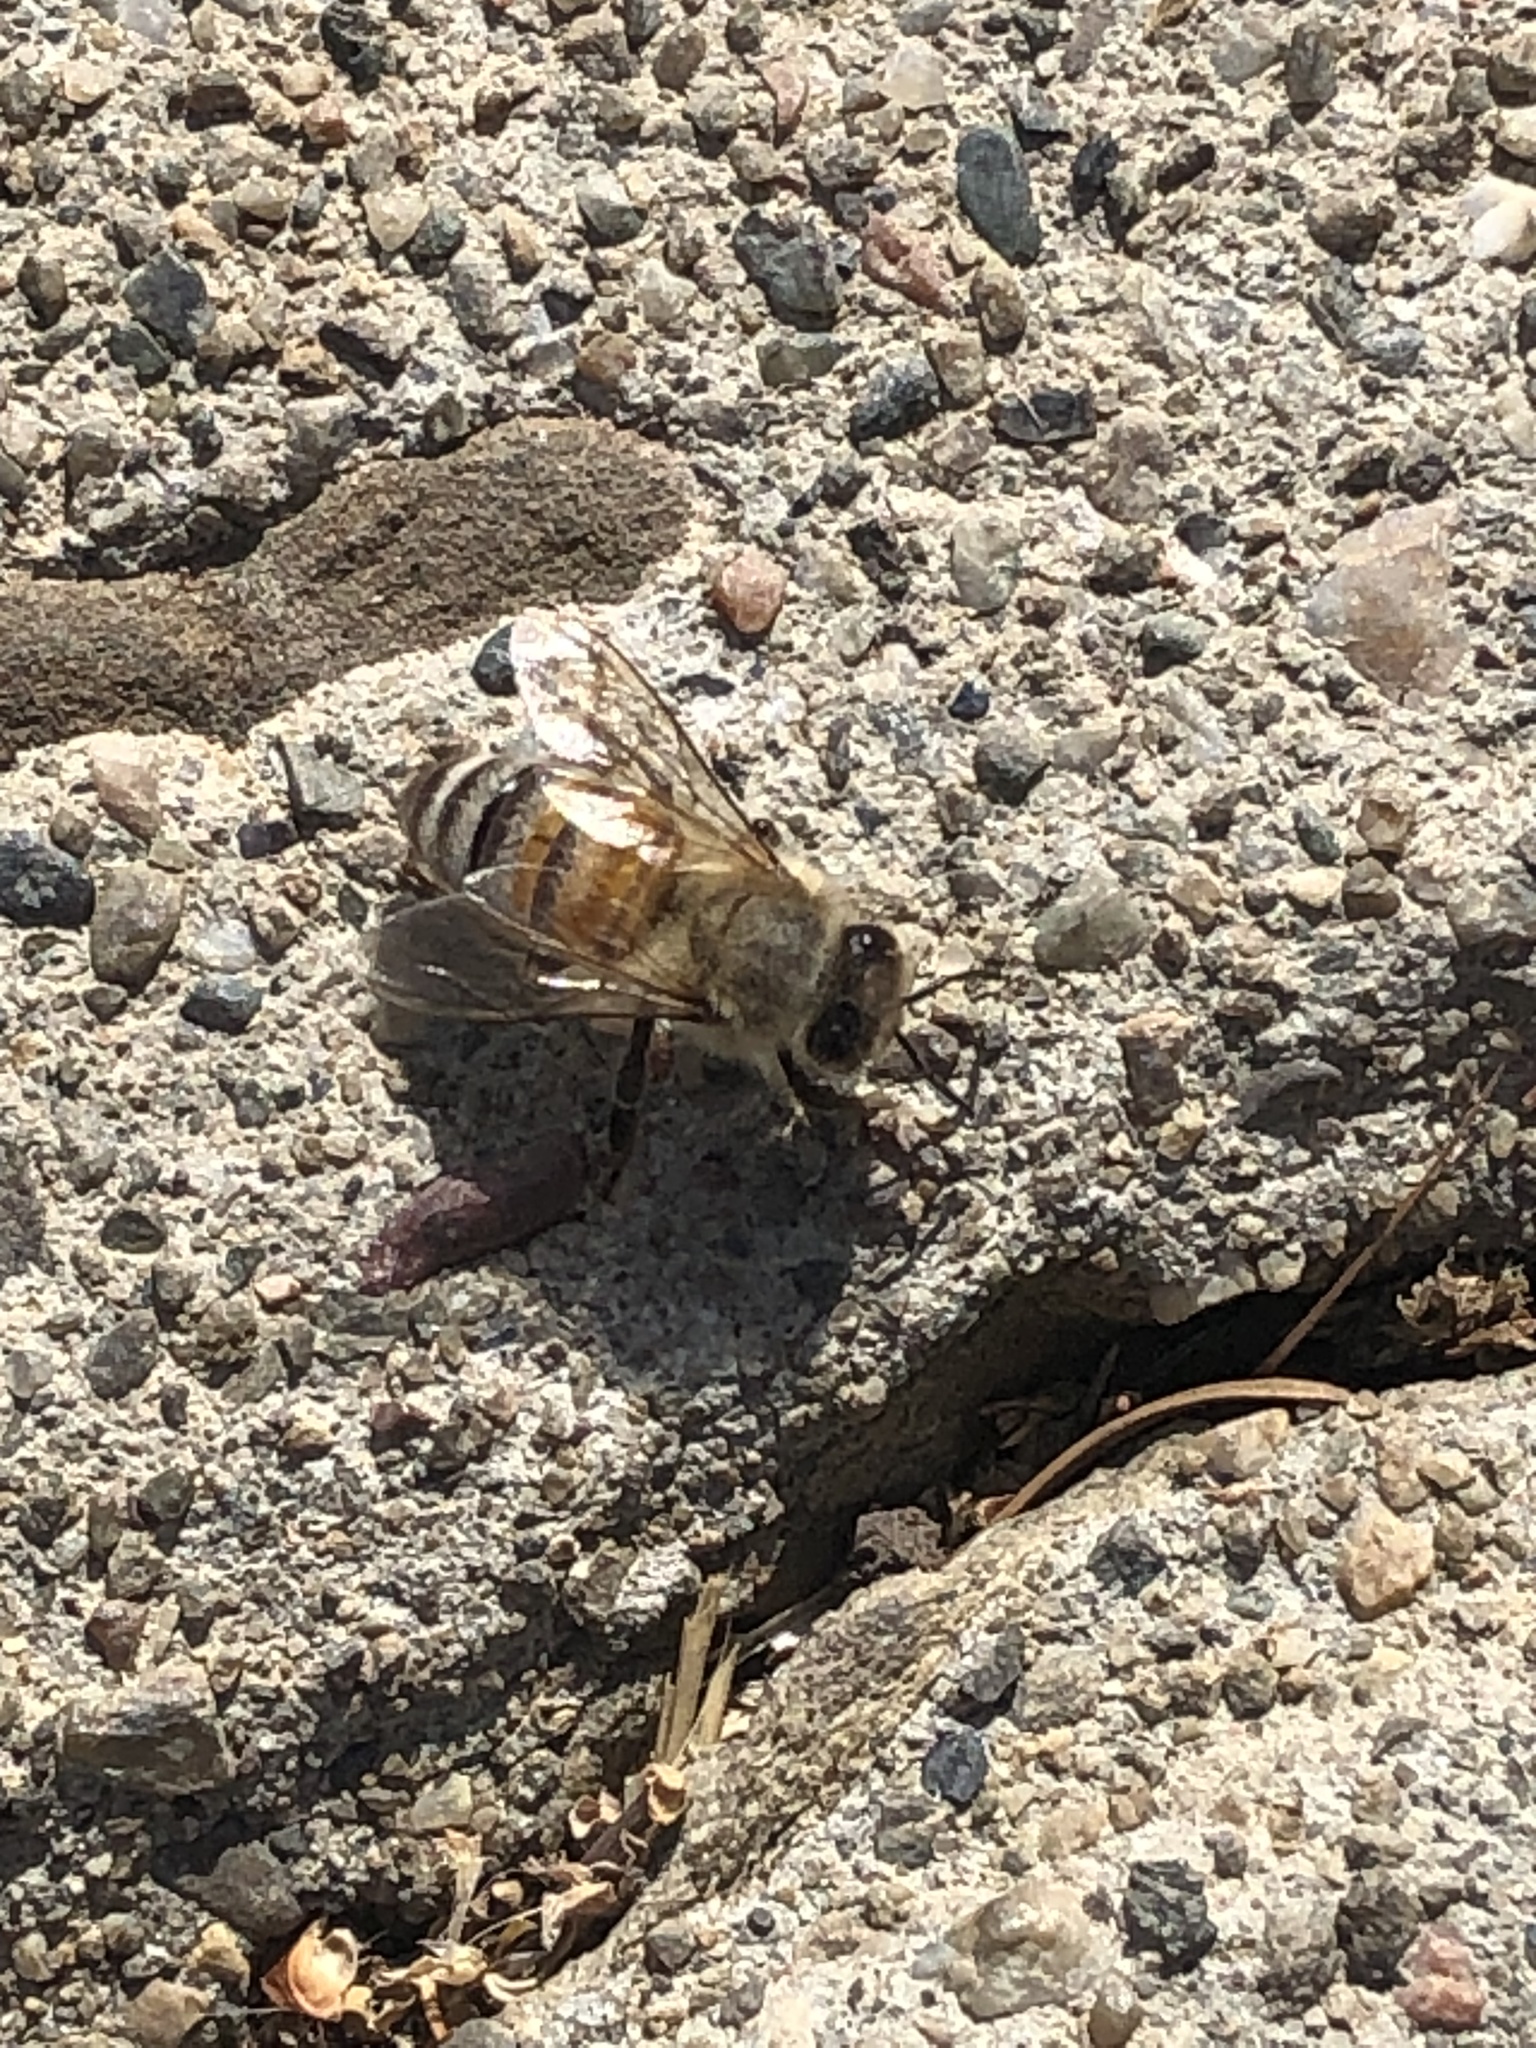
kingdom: Animalia
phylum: Arthropoda
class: Insecta
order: Hymenoptera
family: Apidae
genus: Apis
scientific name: Apis mellifera
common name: Honey bee
